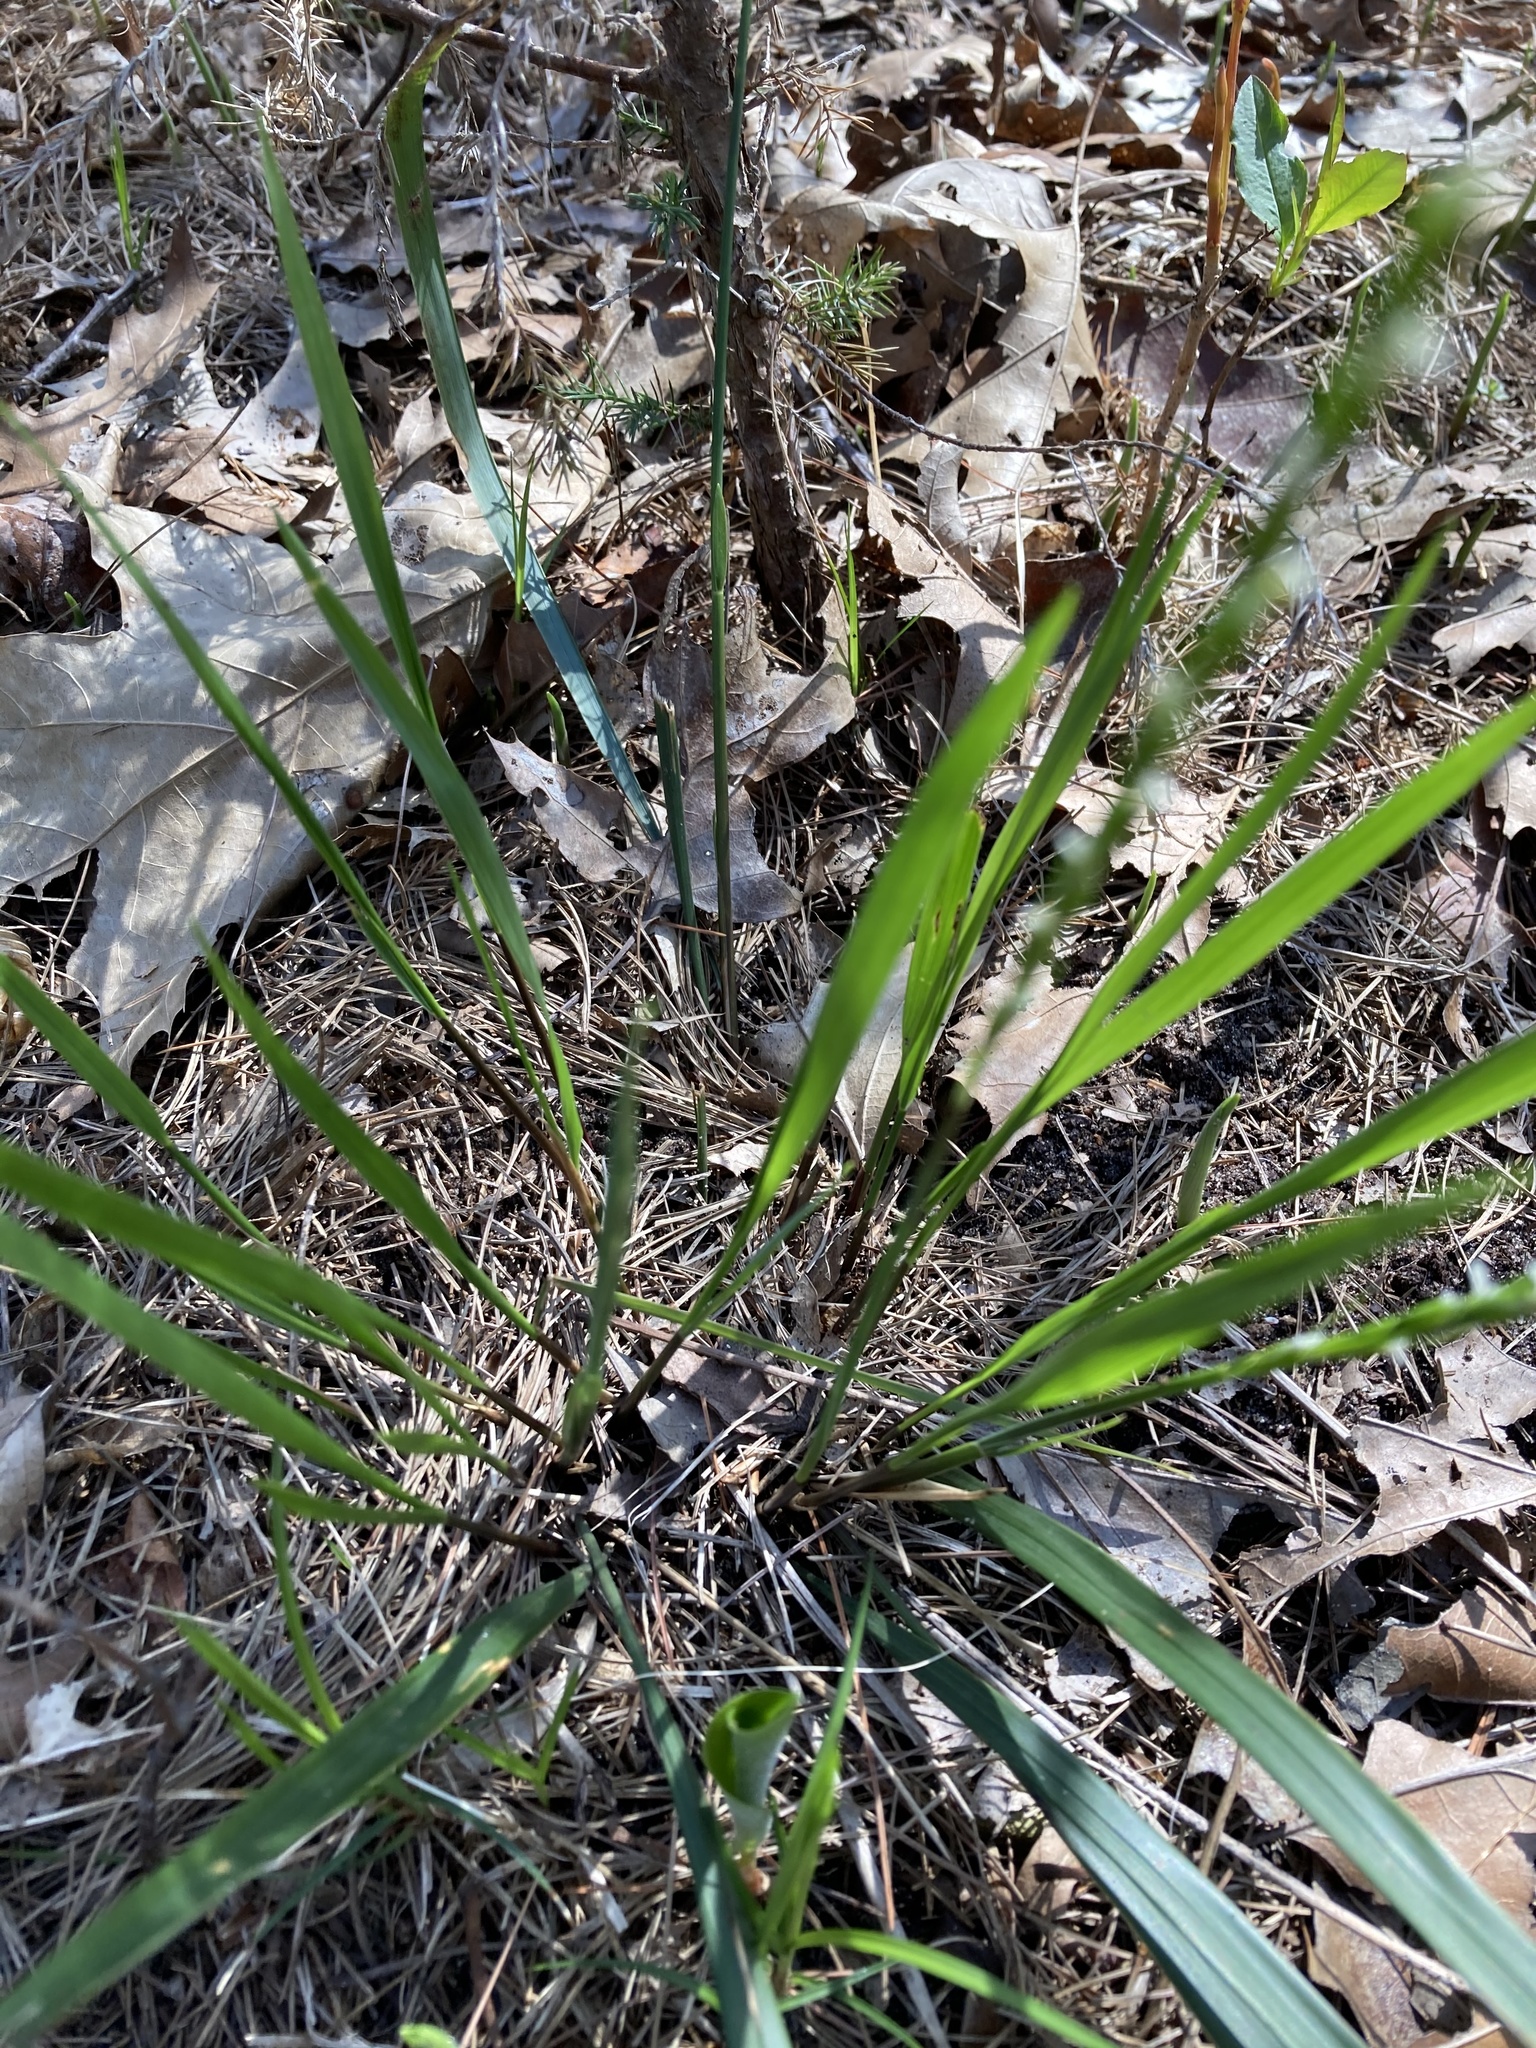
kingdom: Plantae
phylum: Tracheophyta
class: Liliopsida
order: Poales
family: Poaceae
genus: Oryzopsis
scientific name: Oryzopsis asperifolia
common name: Rough-leaved mountain rice
